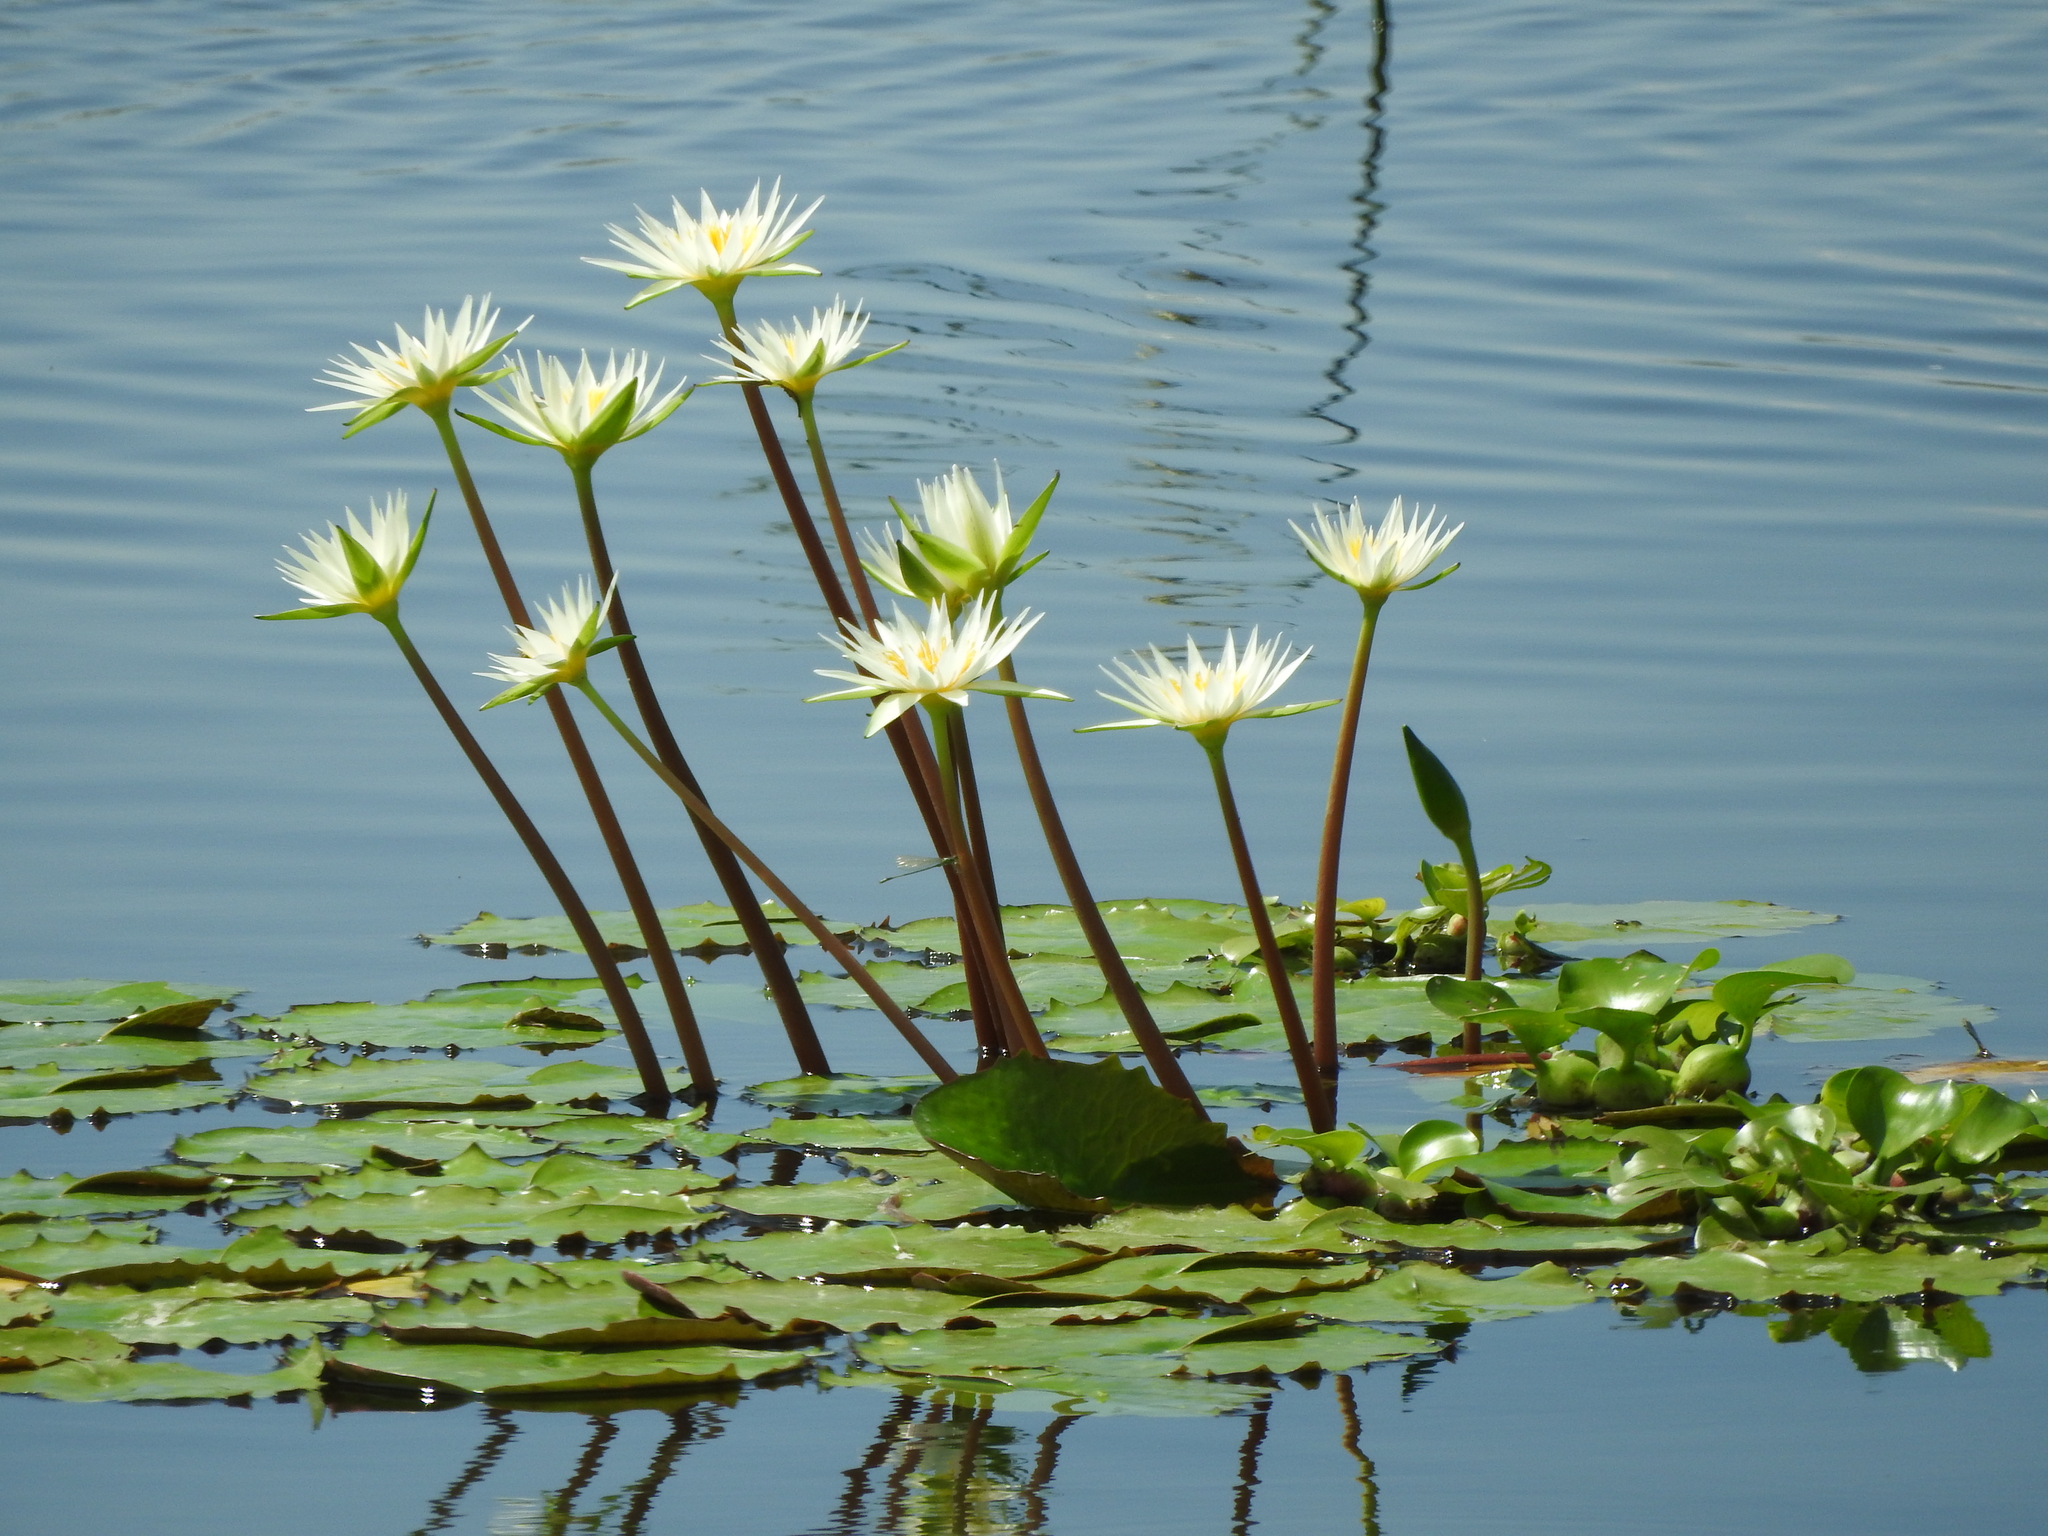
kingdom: Plantae
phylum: Tracheophyta
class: Magnoliopsida
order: Nymphaeales
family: Nymphaeaceae
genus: Nymphaea
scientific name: Nymphaea gracilis
